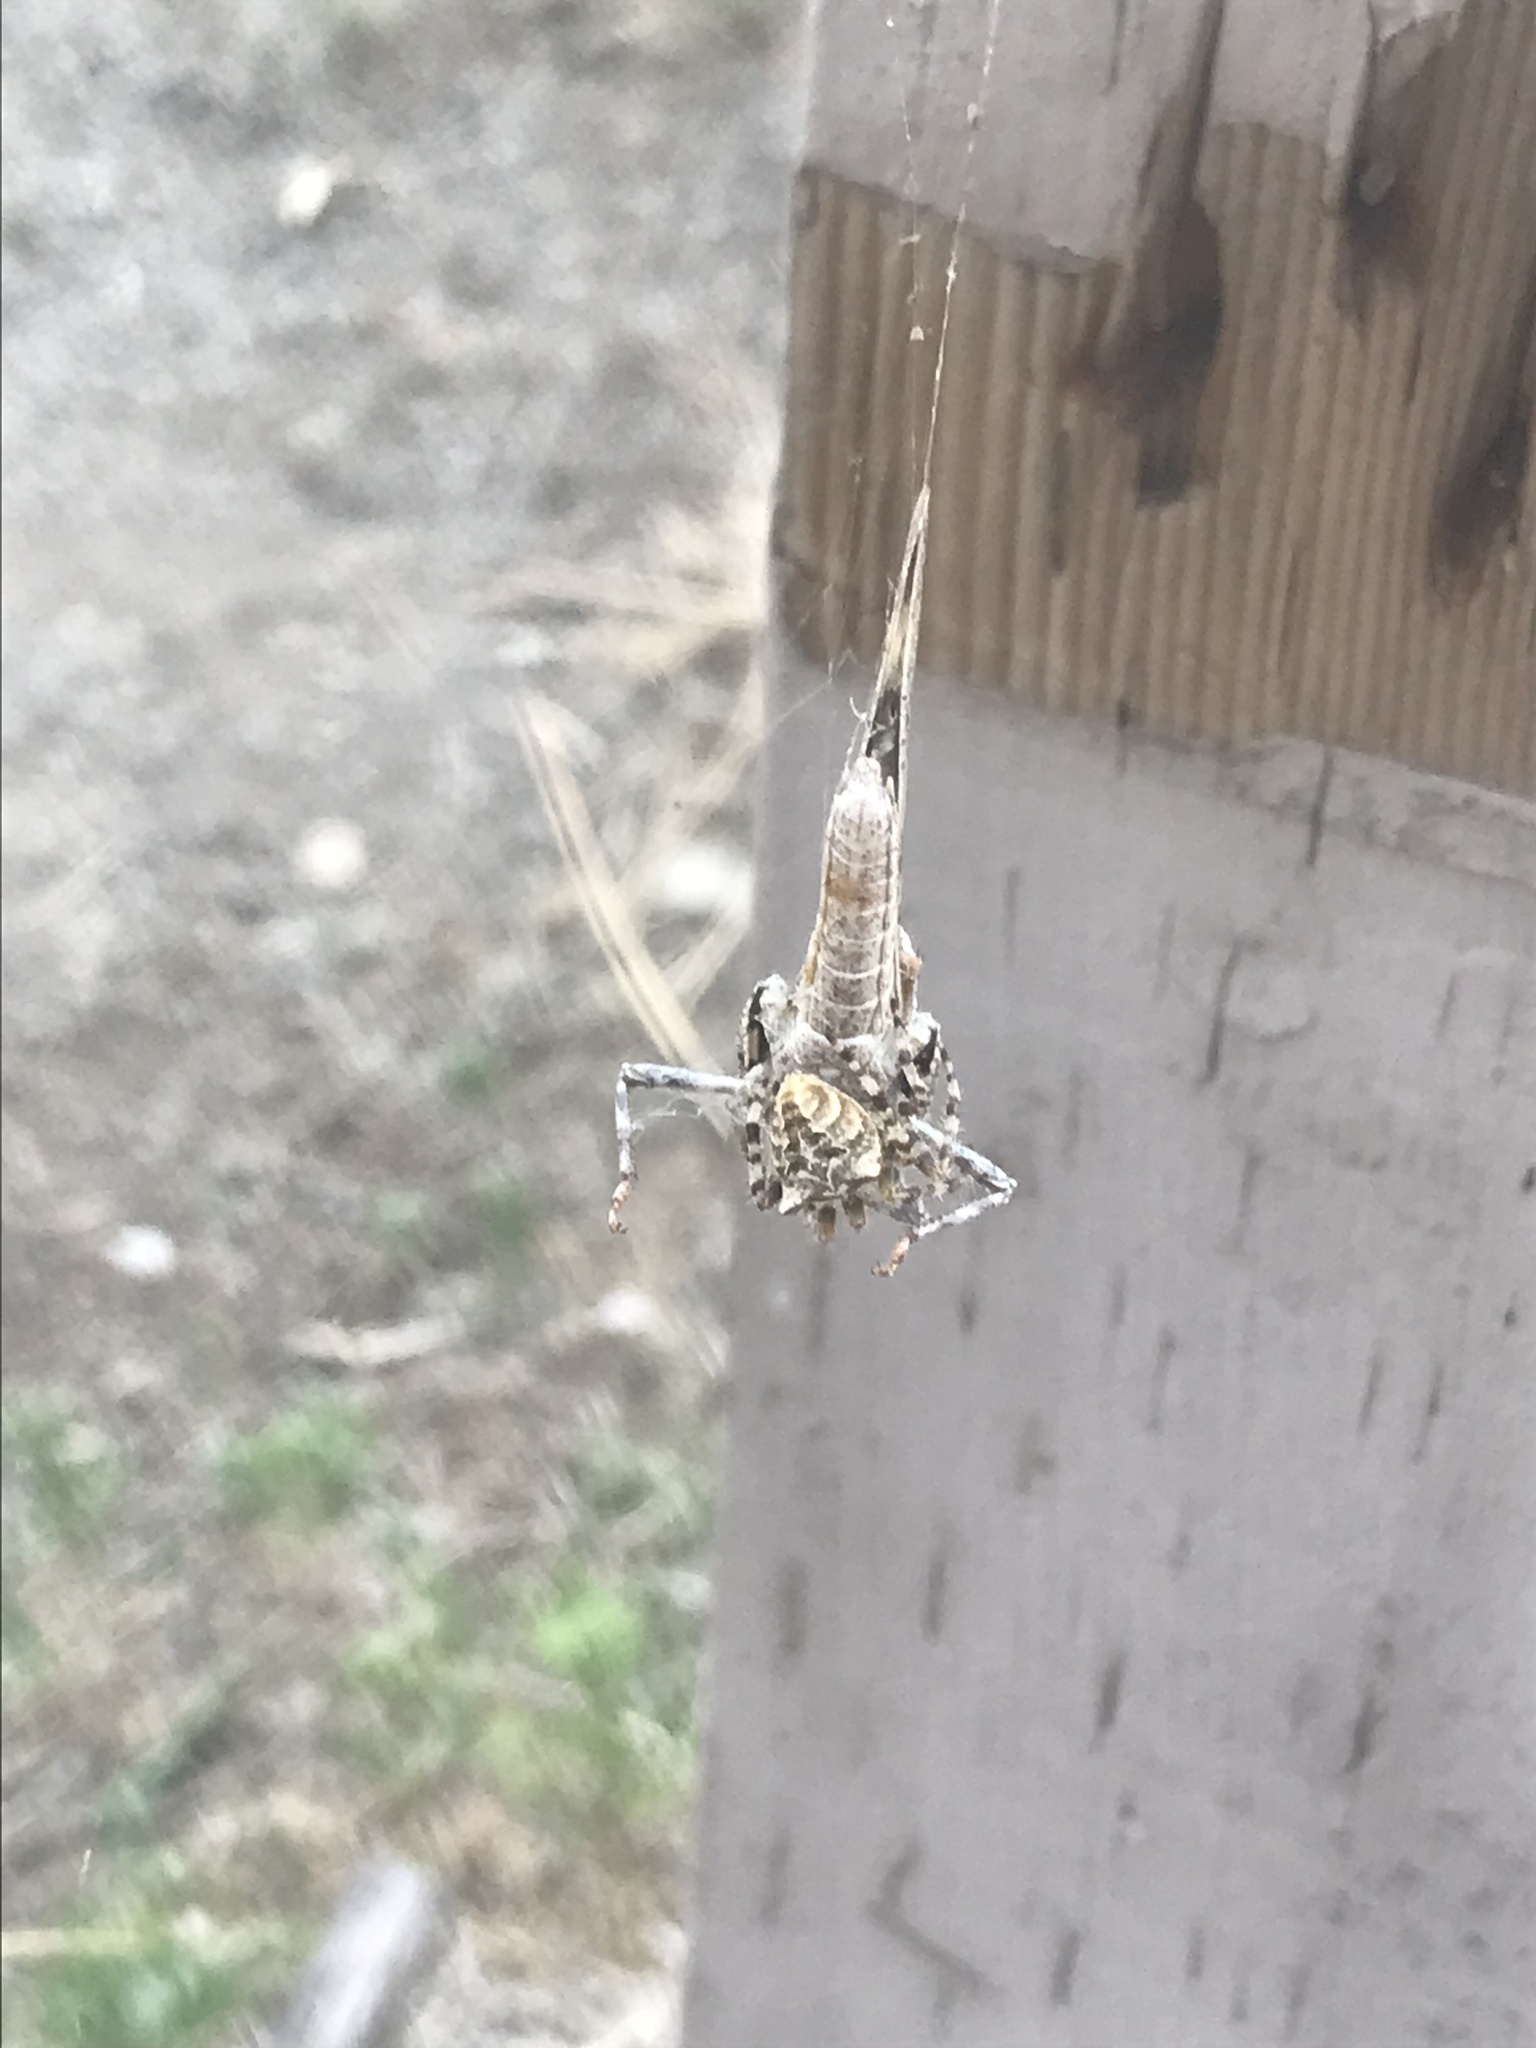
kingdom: Animalia
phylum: Arthropoda
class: Arachnida
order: Araneae
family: Araneidae
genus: Araneus
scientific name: Araneus gemmoides
